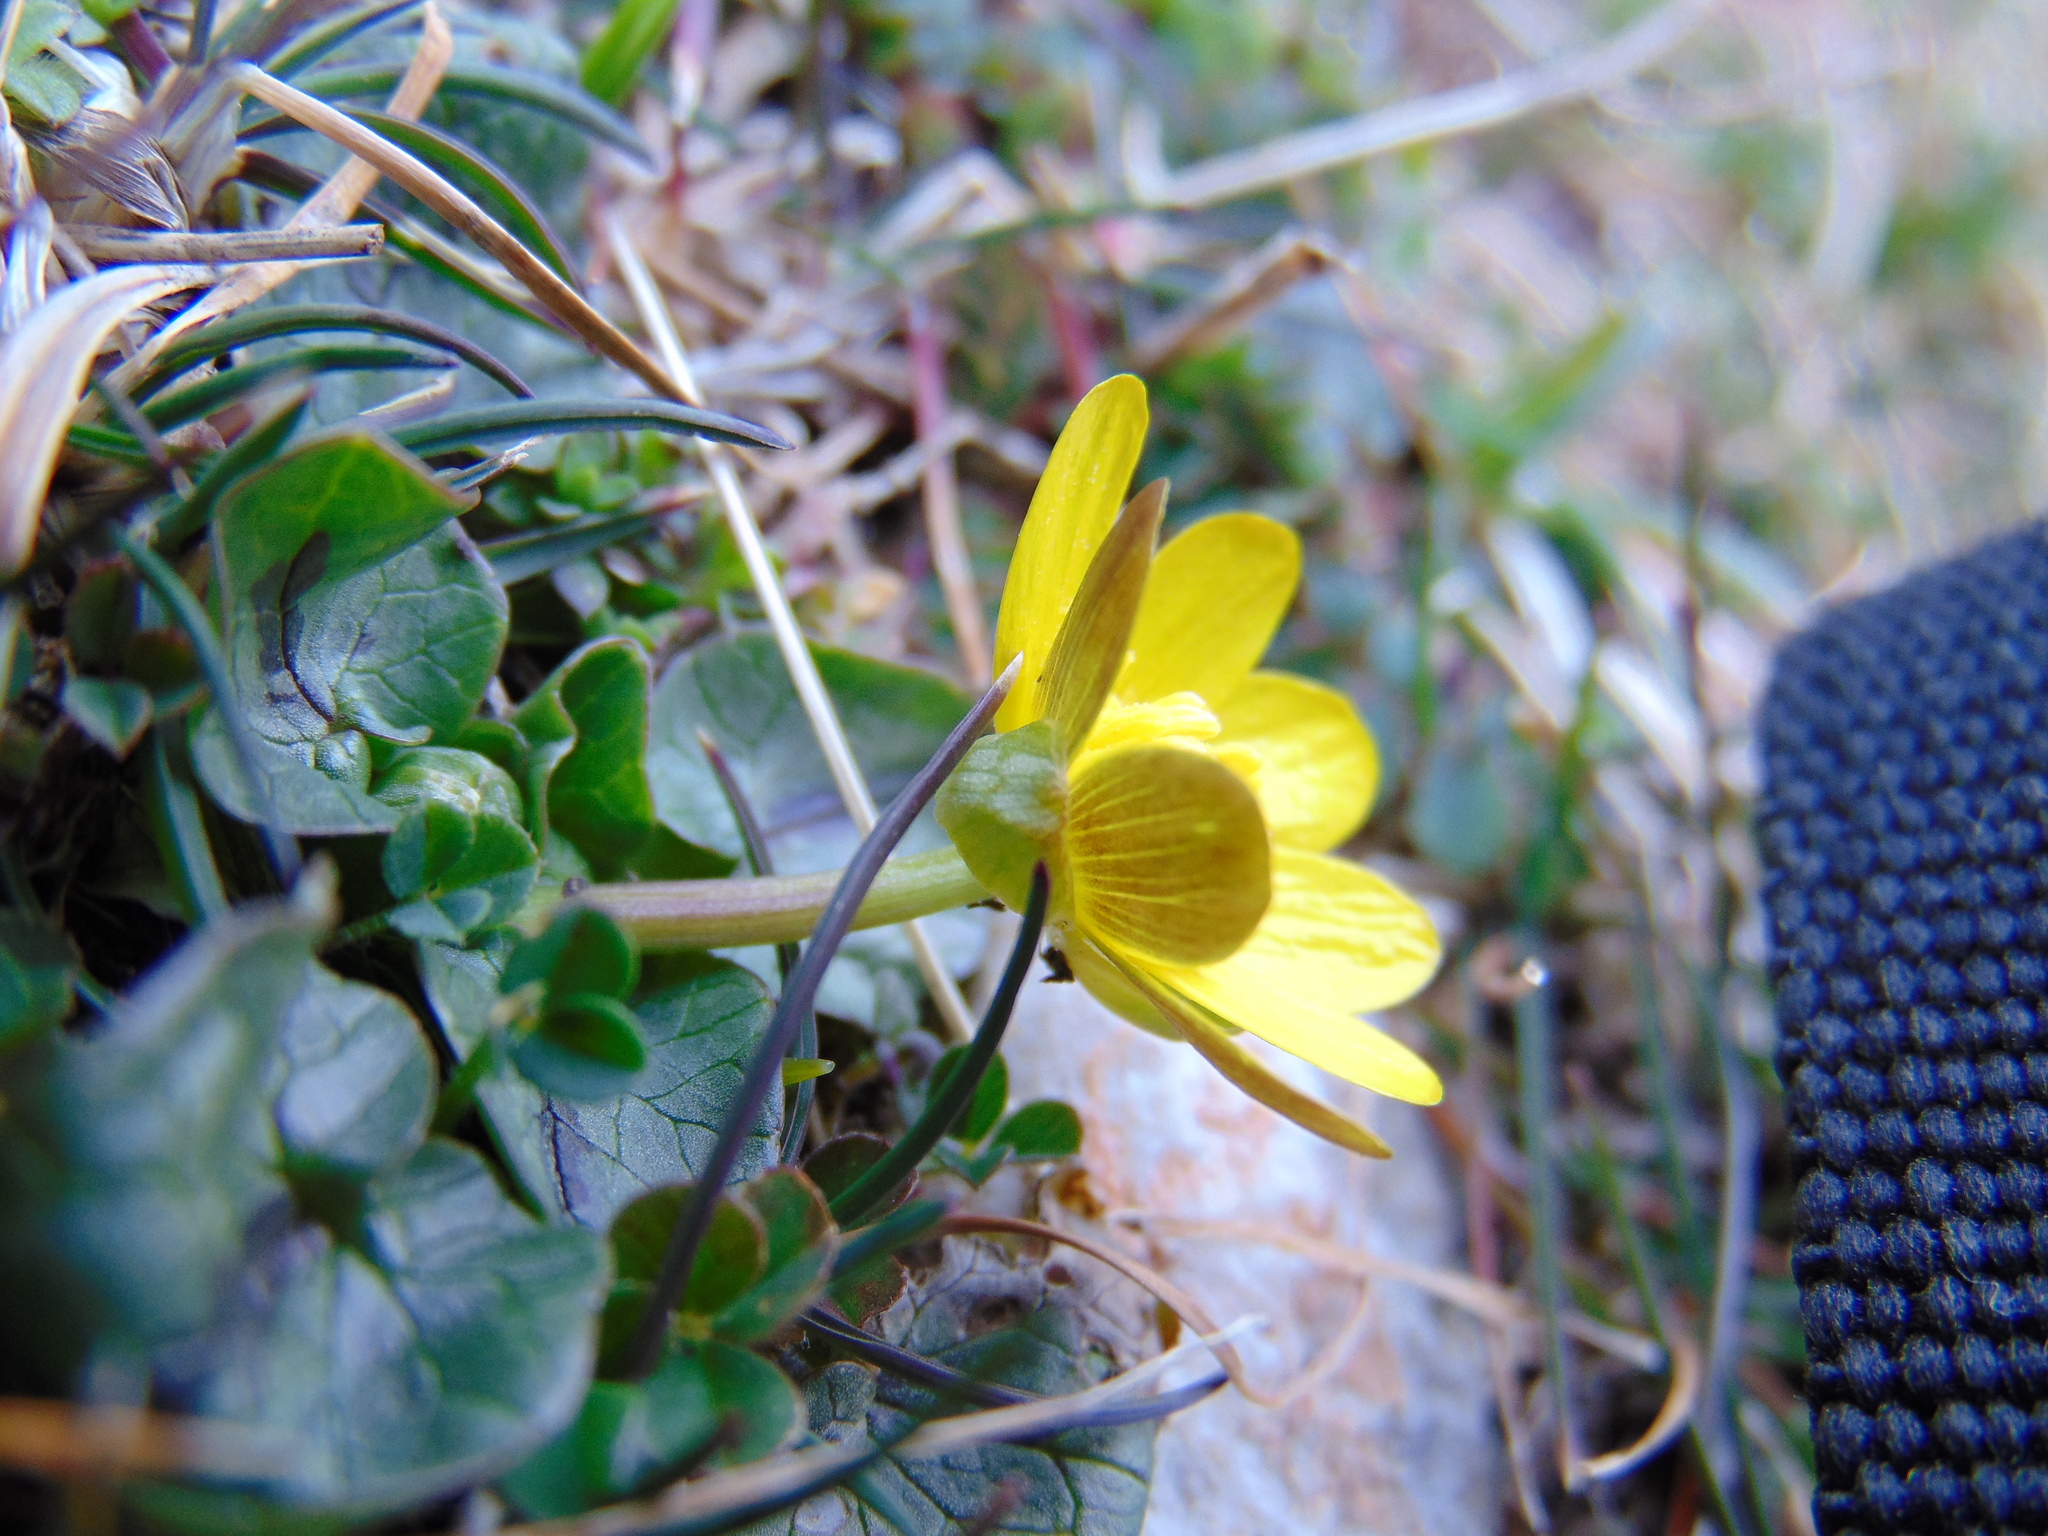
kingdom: Plantae
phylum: Tracheophyta
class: Magnoliopsida
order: Ranunculales
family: Ranunculaceae
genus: Ficaria
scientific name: Ficaria verna
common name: Lesser celandine
